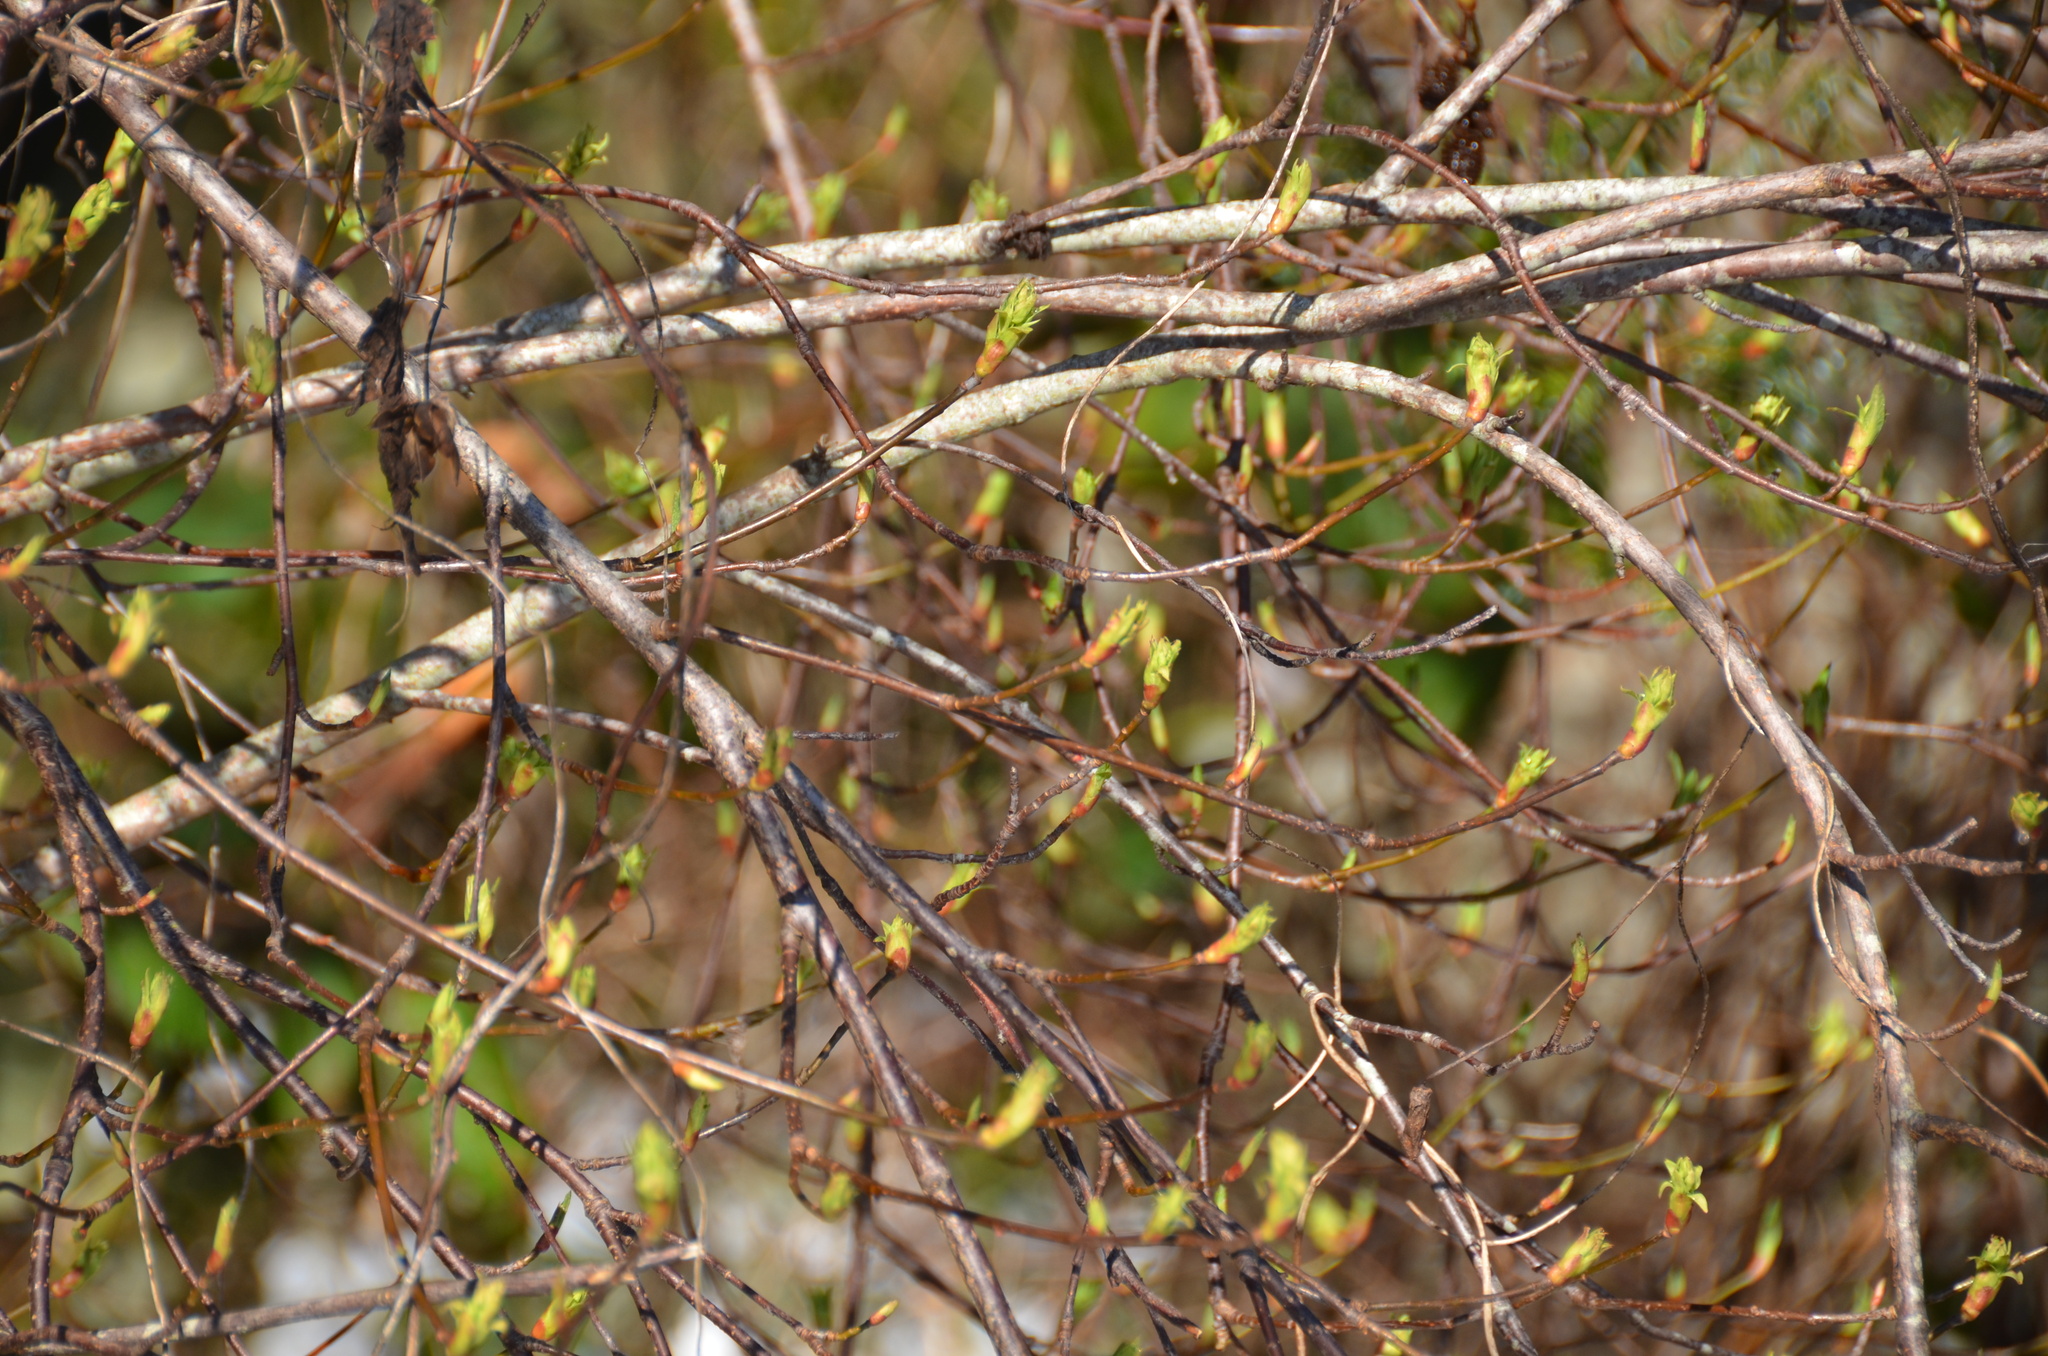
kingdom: Plantae
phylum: Tracheophyta
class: Magnoliopsida
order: Rosales
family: Rosaceae
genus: Oemleria
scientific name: Oemleria cerasiformis
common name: Osoberry
